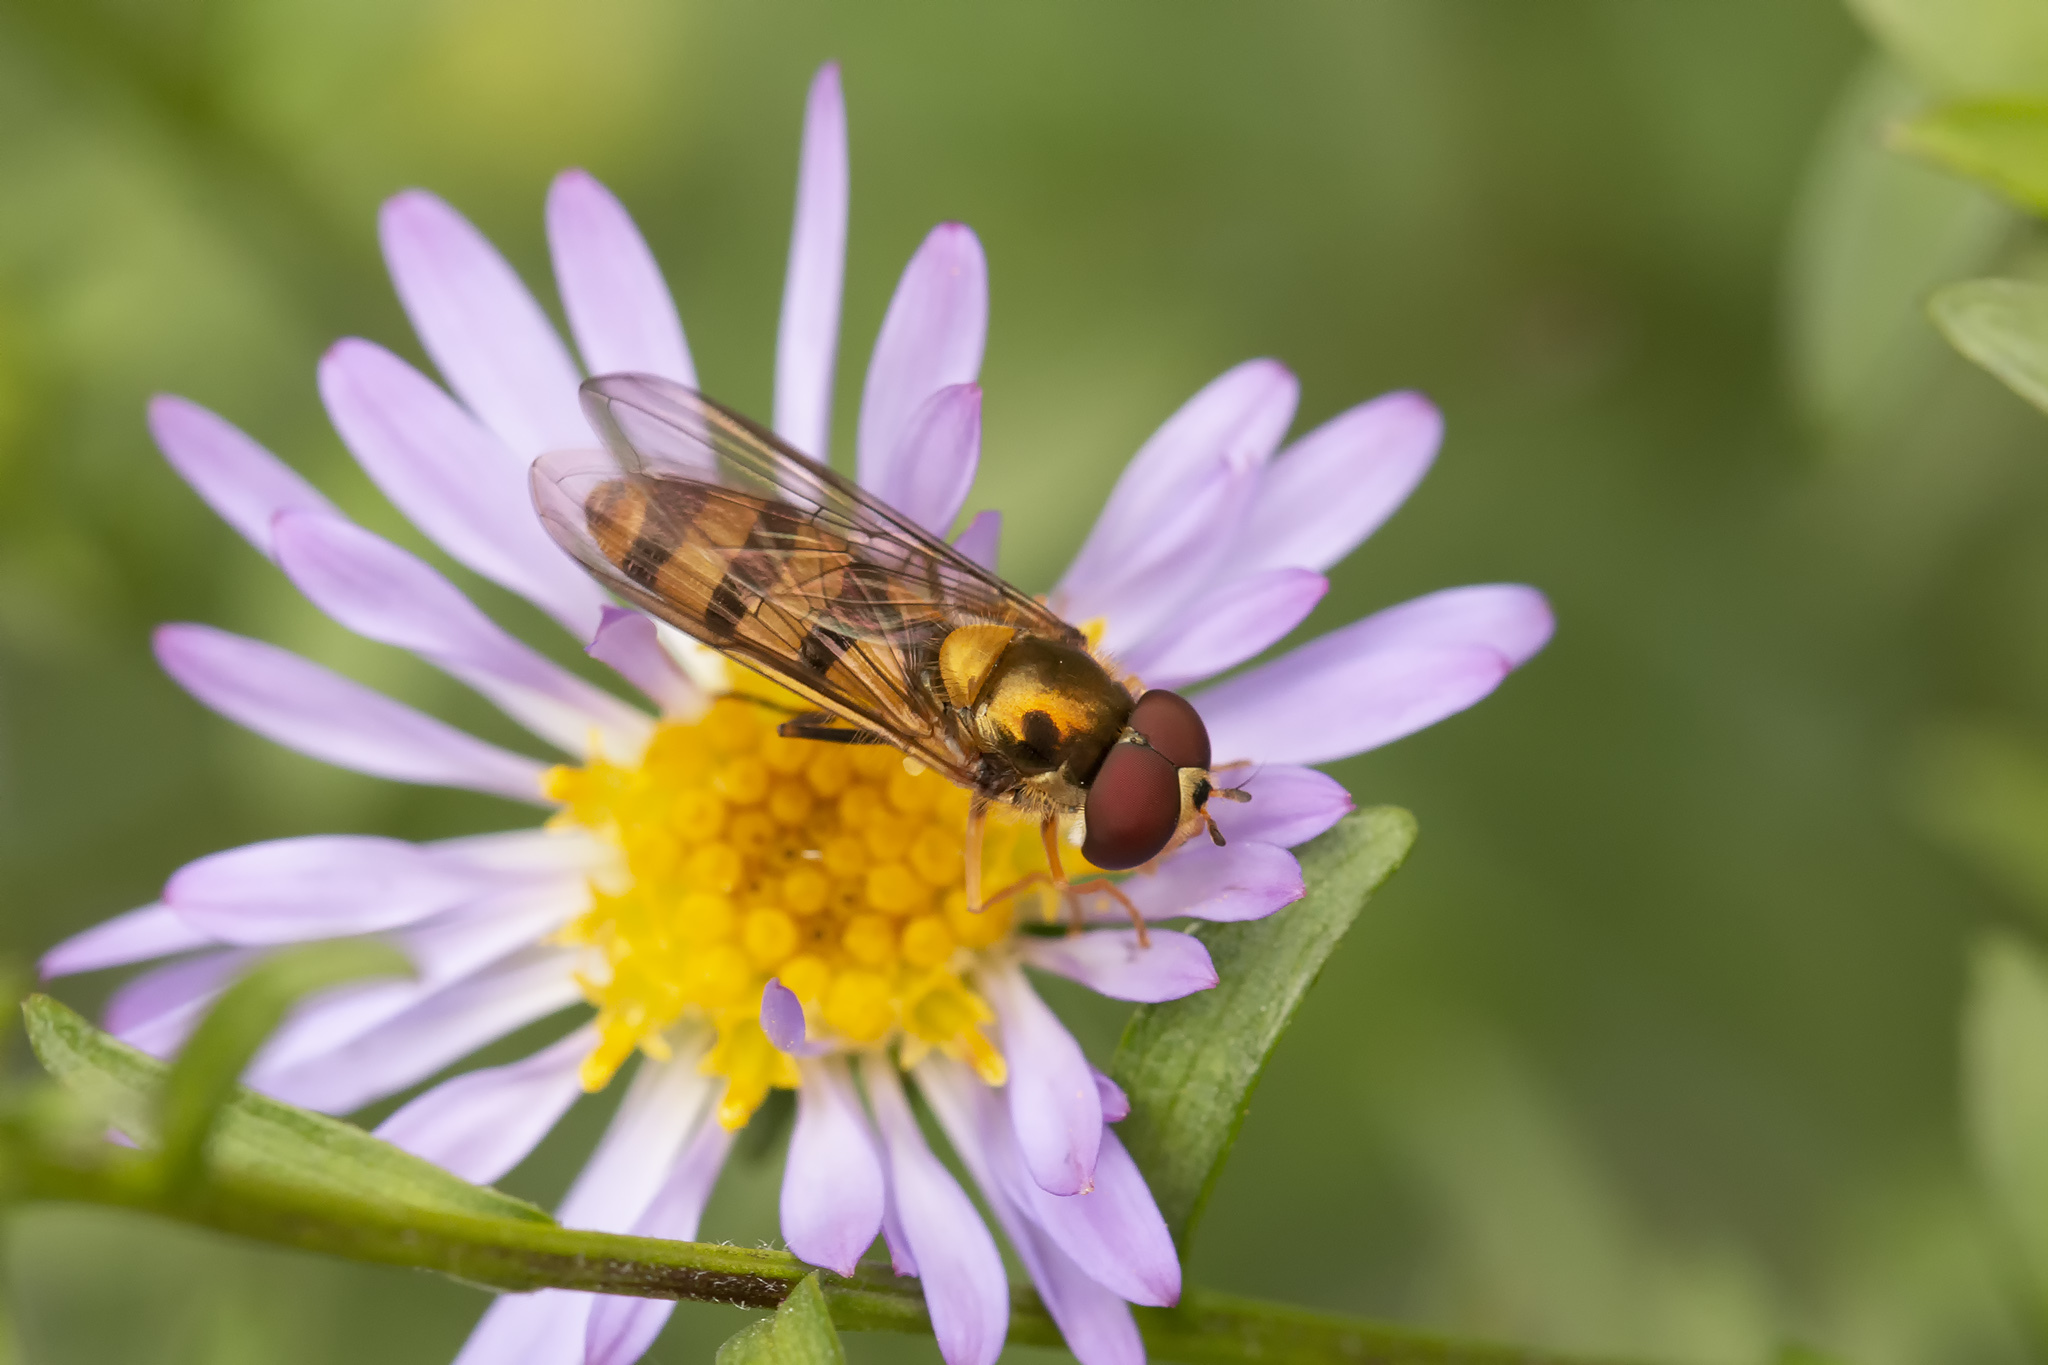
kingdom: Animalia
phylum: Arthropoda
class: Insecta
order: Diptera
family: Syrphidae
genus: Meliscaeva
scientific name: Meliscaeva cinctella
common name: American thintail fly
